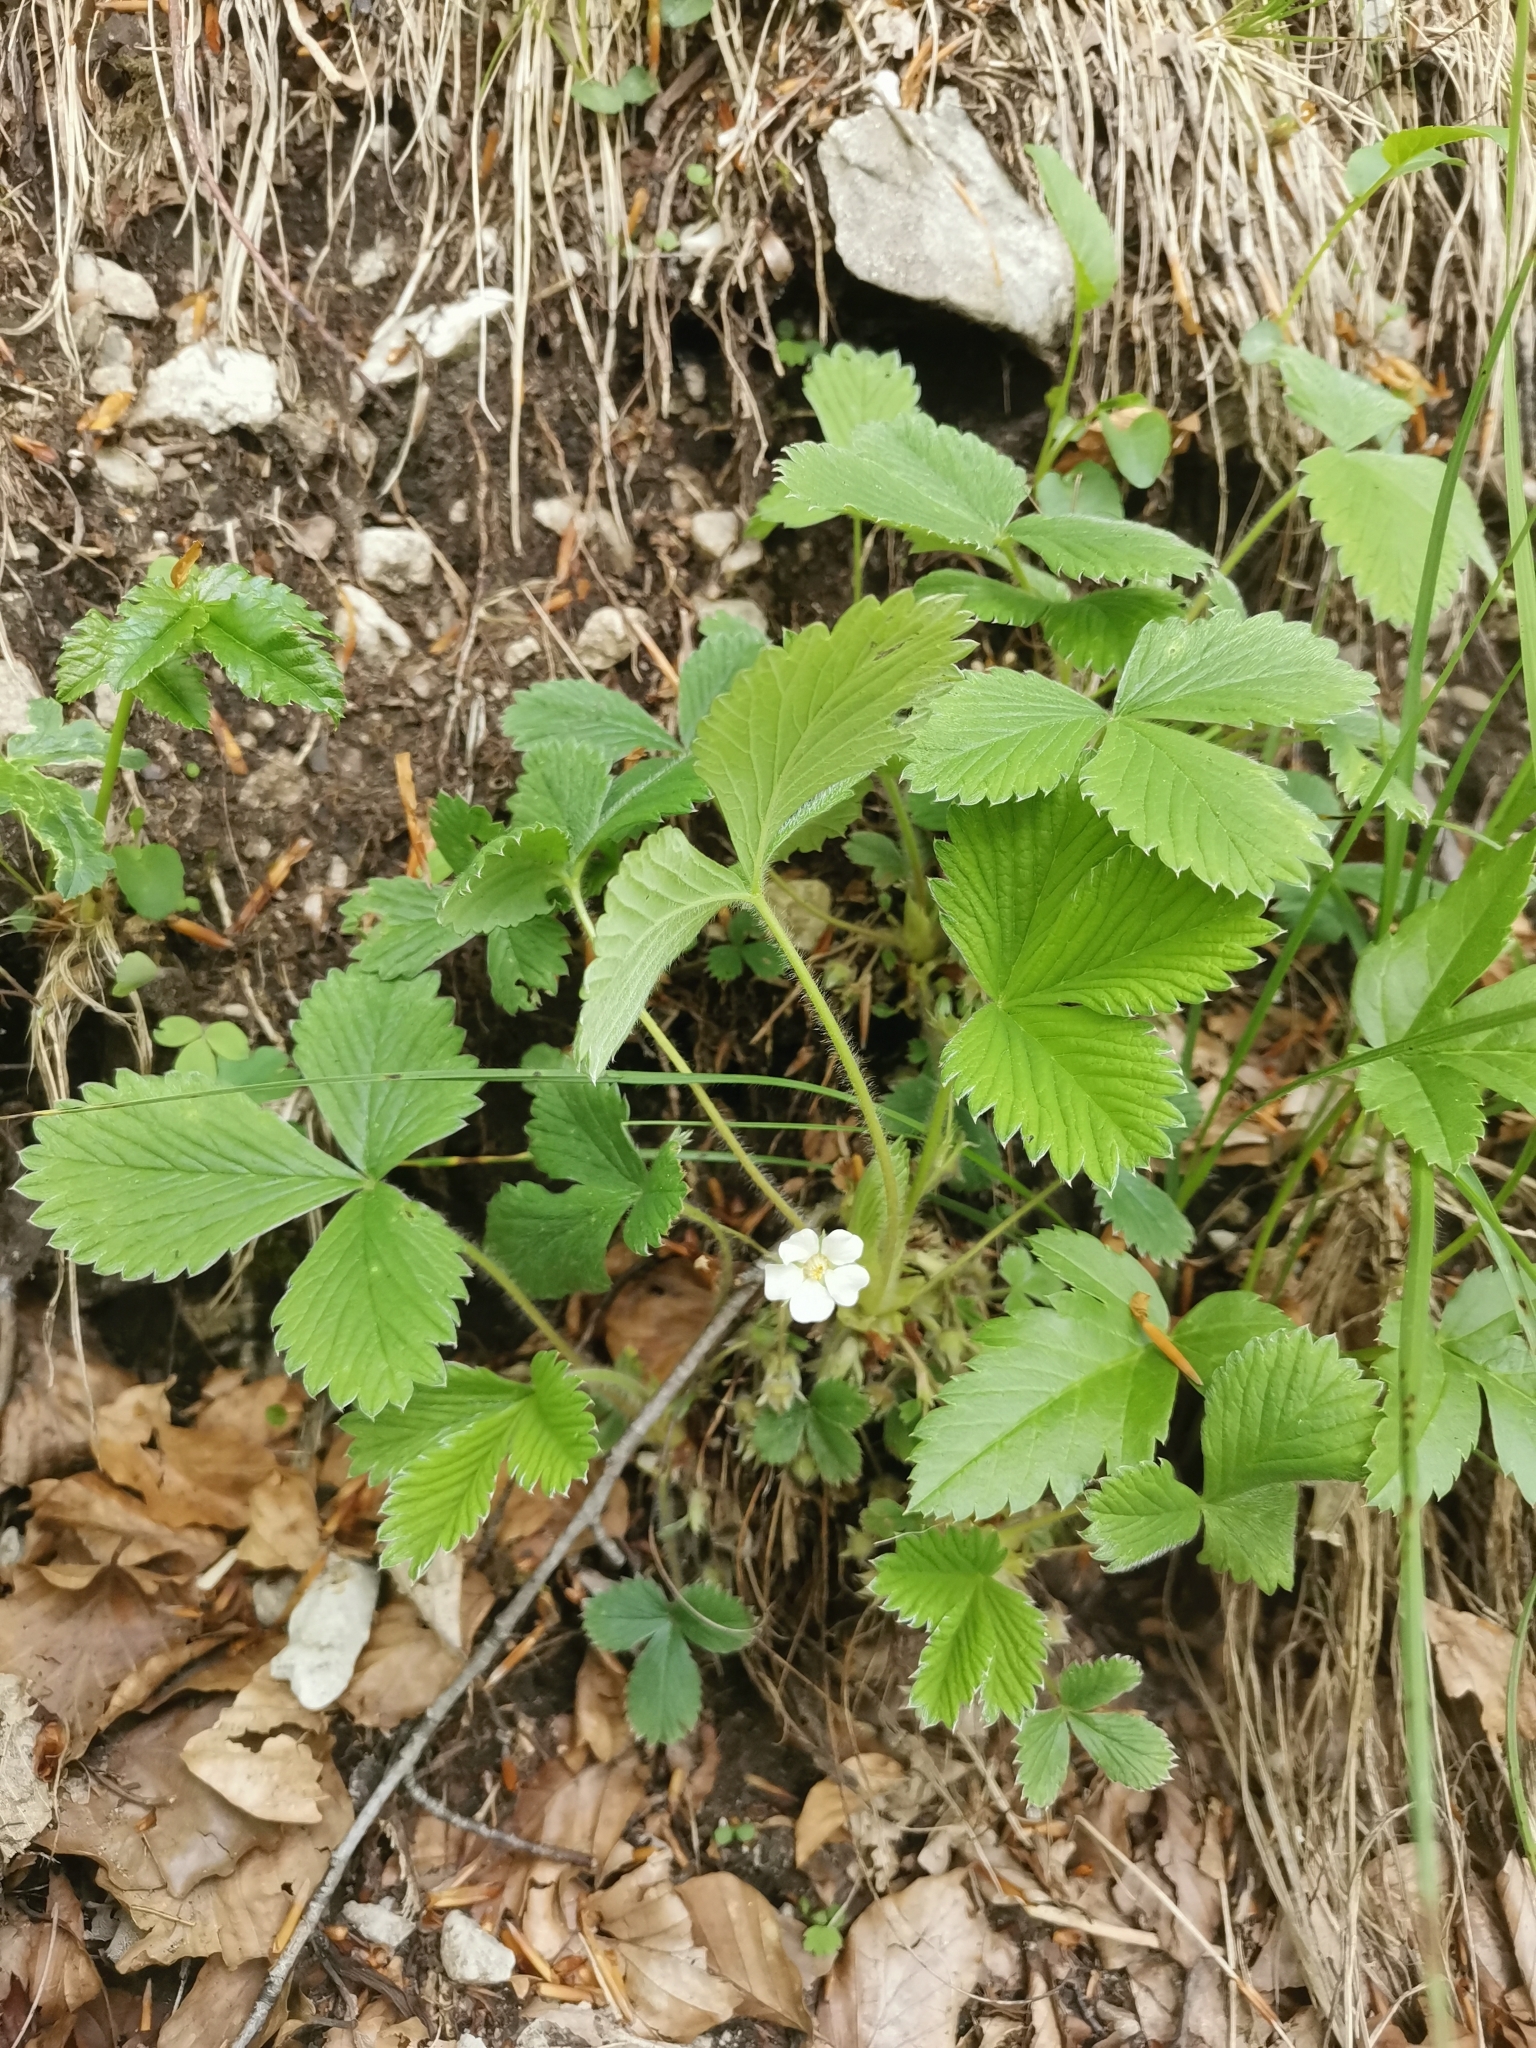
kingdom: Plantae
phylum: Tracheophyta
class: Magnoliopsida
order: Rosales
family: Rosaceae
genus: Potentilla
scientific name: Potentilla carniolica
